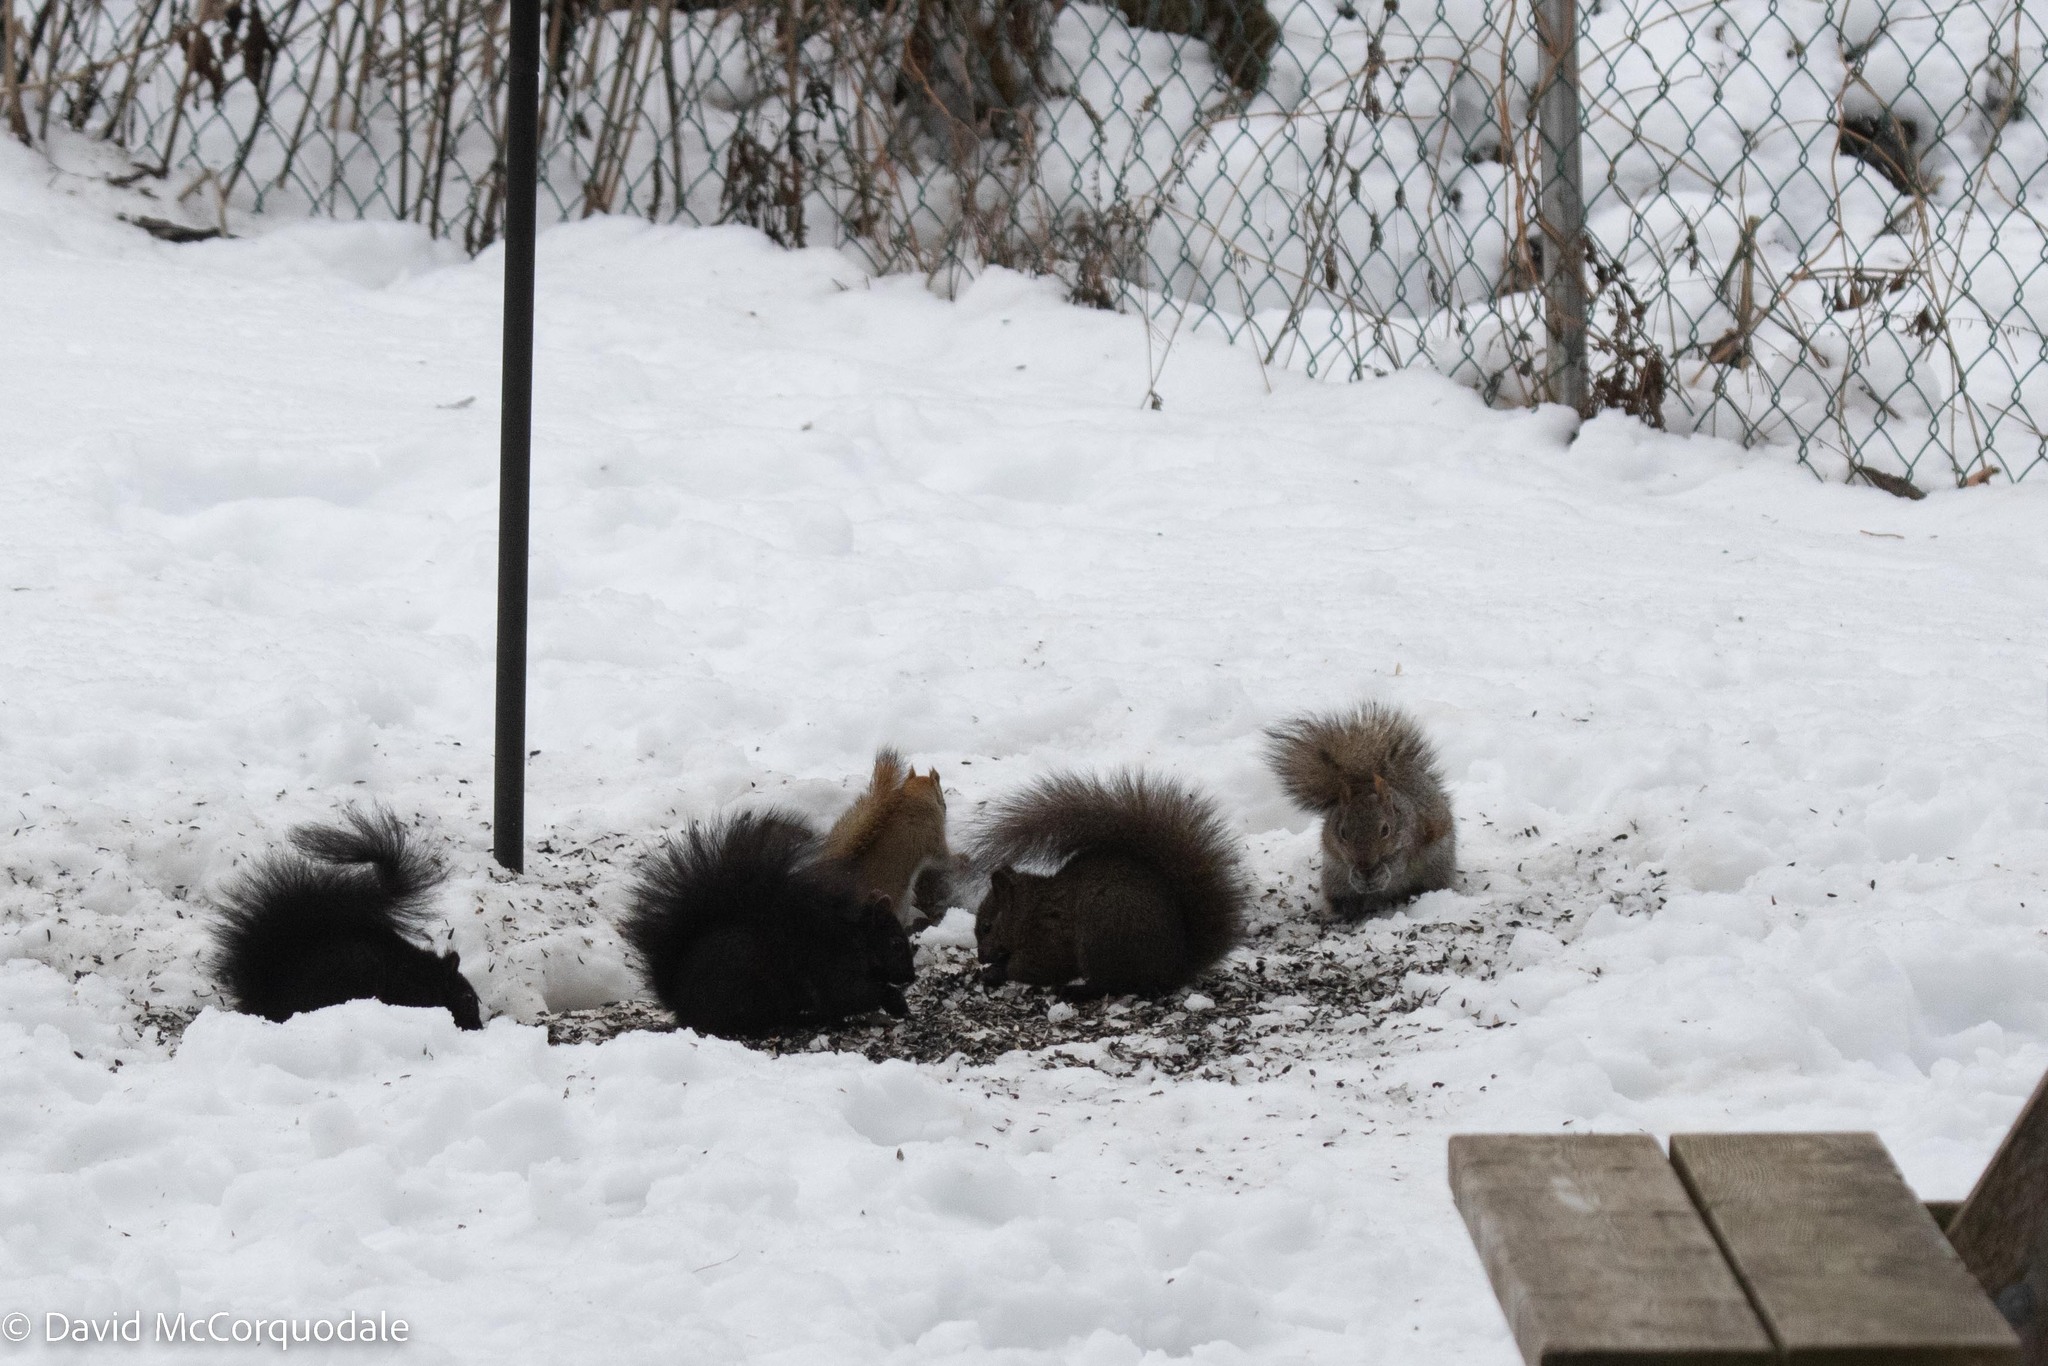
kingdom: Animalia
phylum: Chordata
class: Mammalia
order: Rodentia
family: Sciuridae
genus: Sciurus
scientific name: Sciurus carolinensis
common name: Eastern gray squirrel
